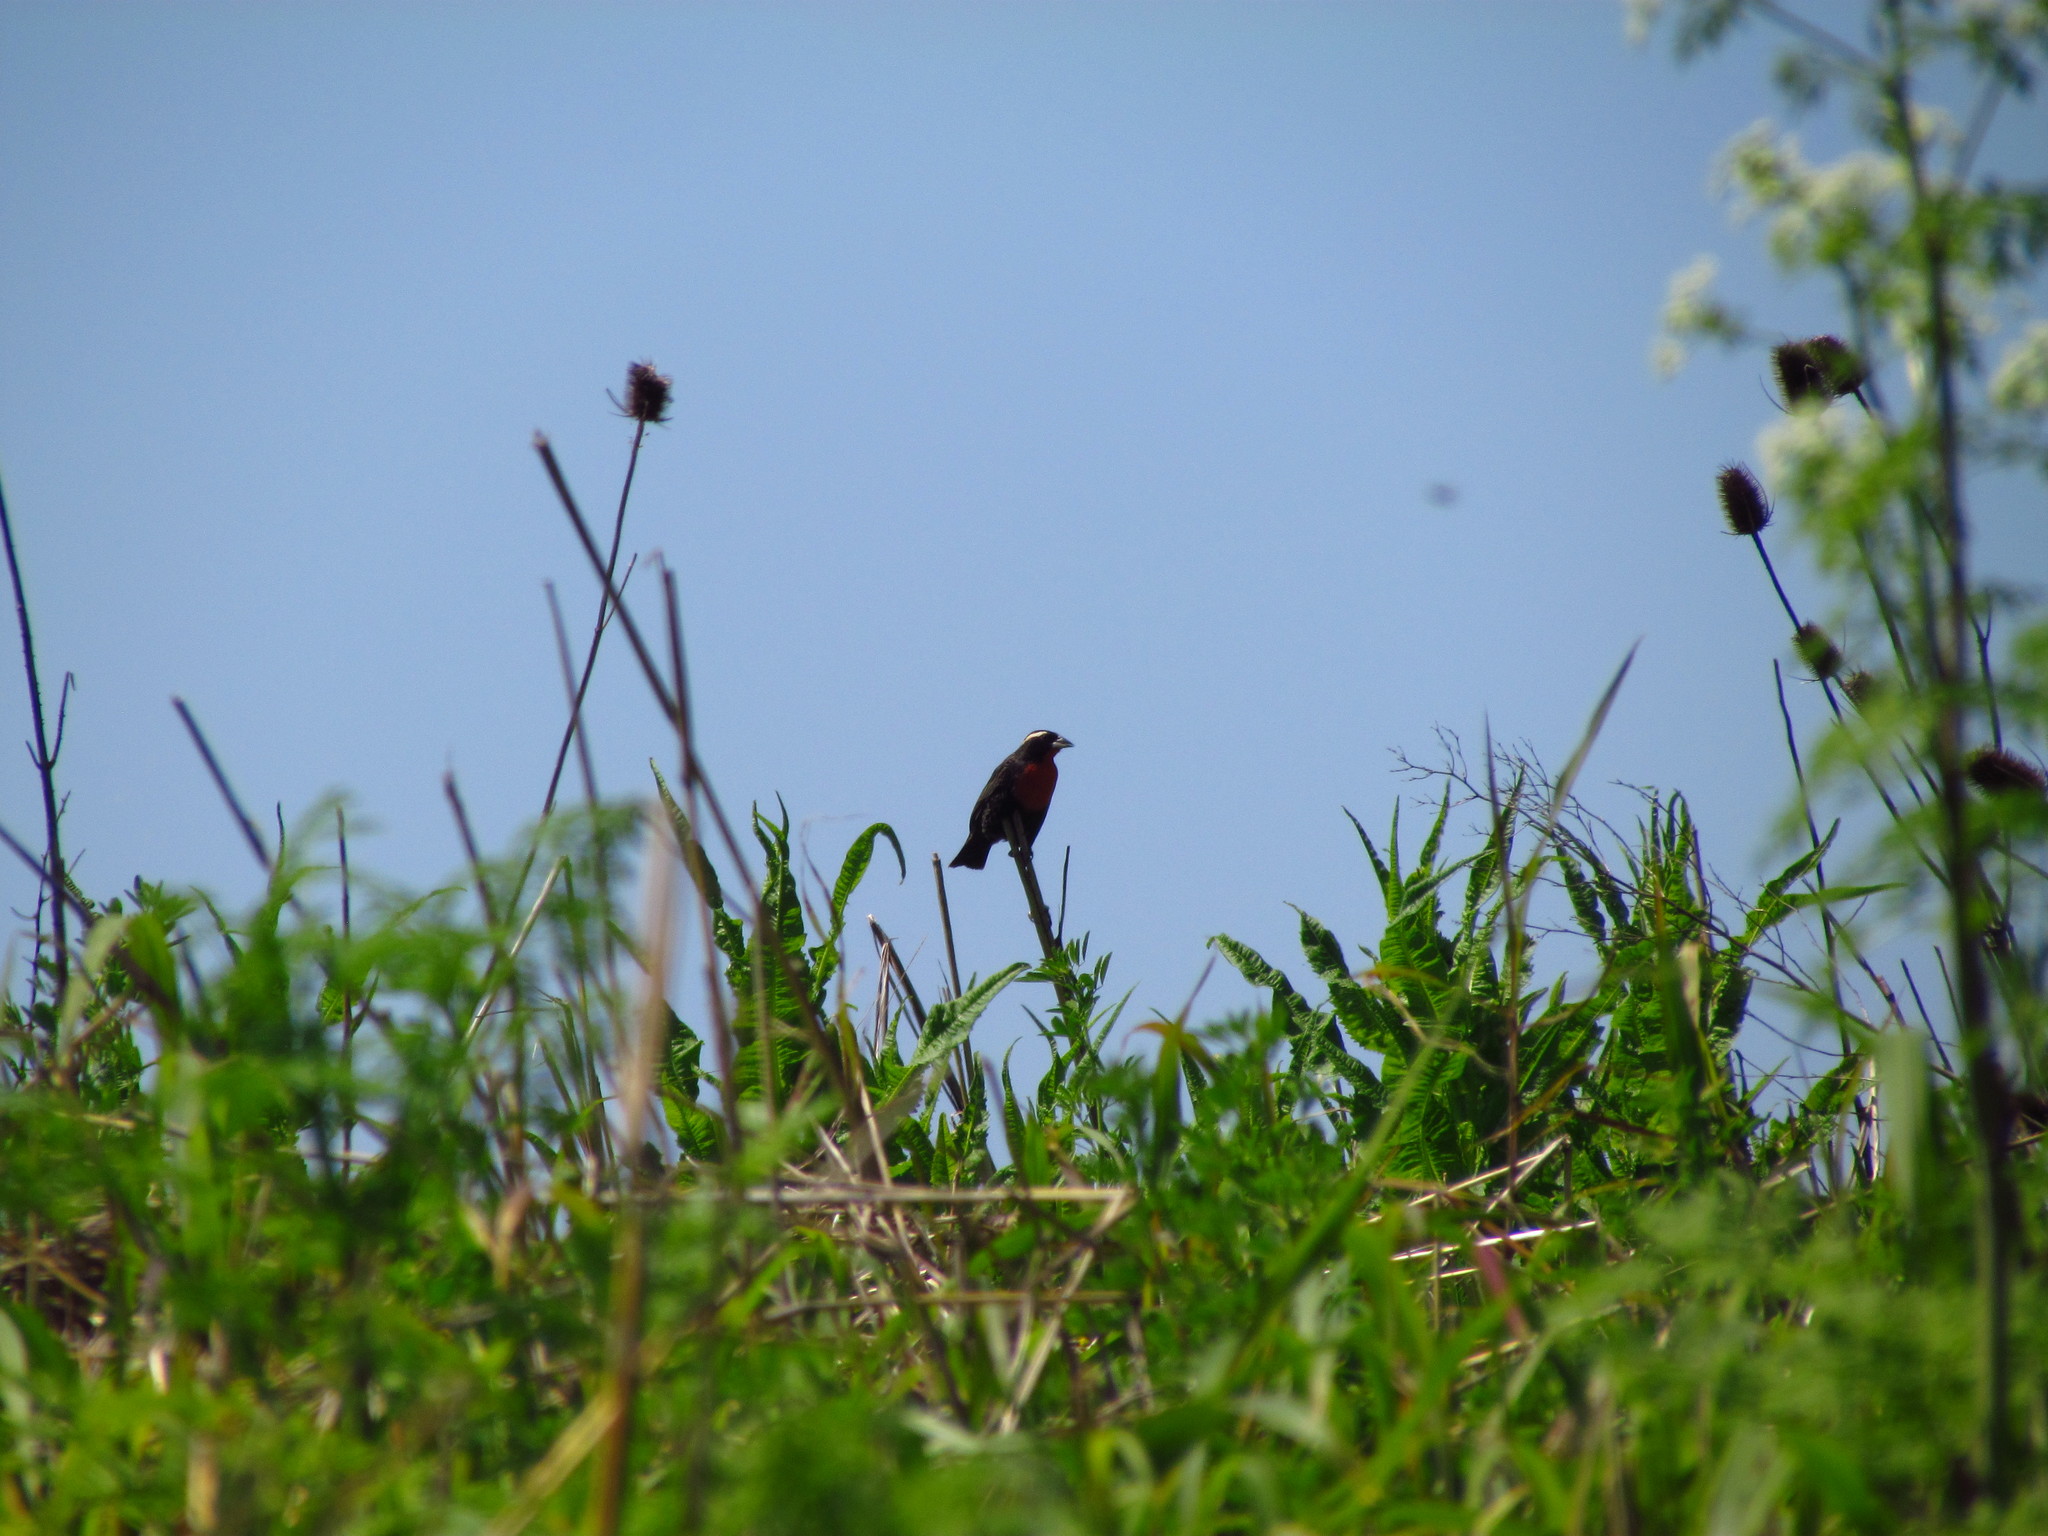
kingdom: Animalia
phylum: Chordata
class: Aves
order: Passeriformes
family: Icteridae
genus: Sturnella
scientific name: Sturnella superciliaris
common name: White-browed blackbird
